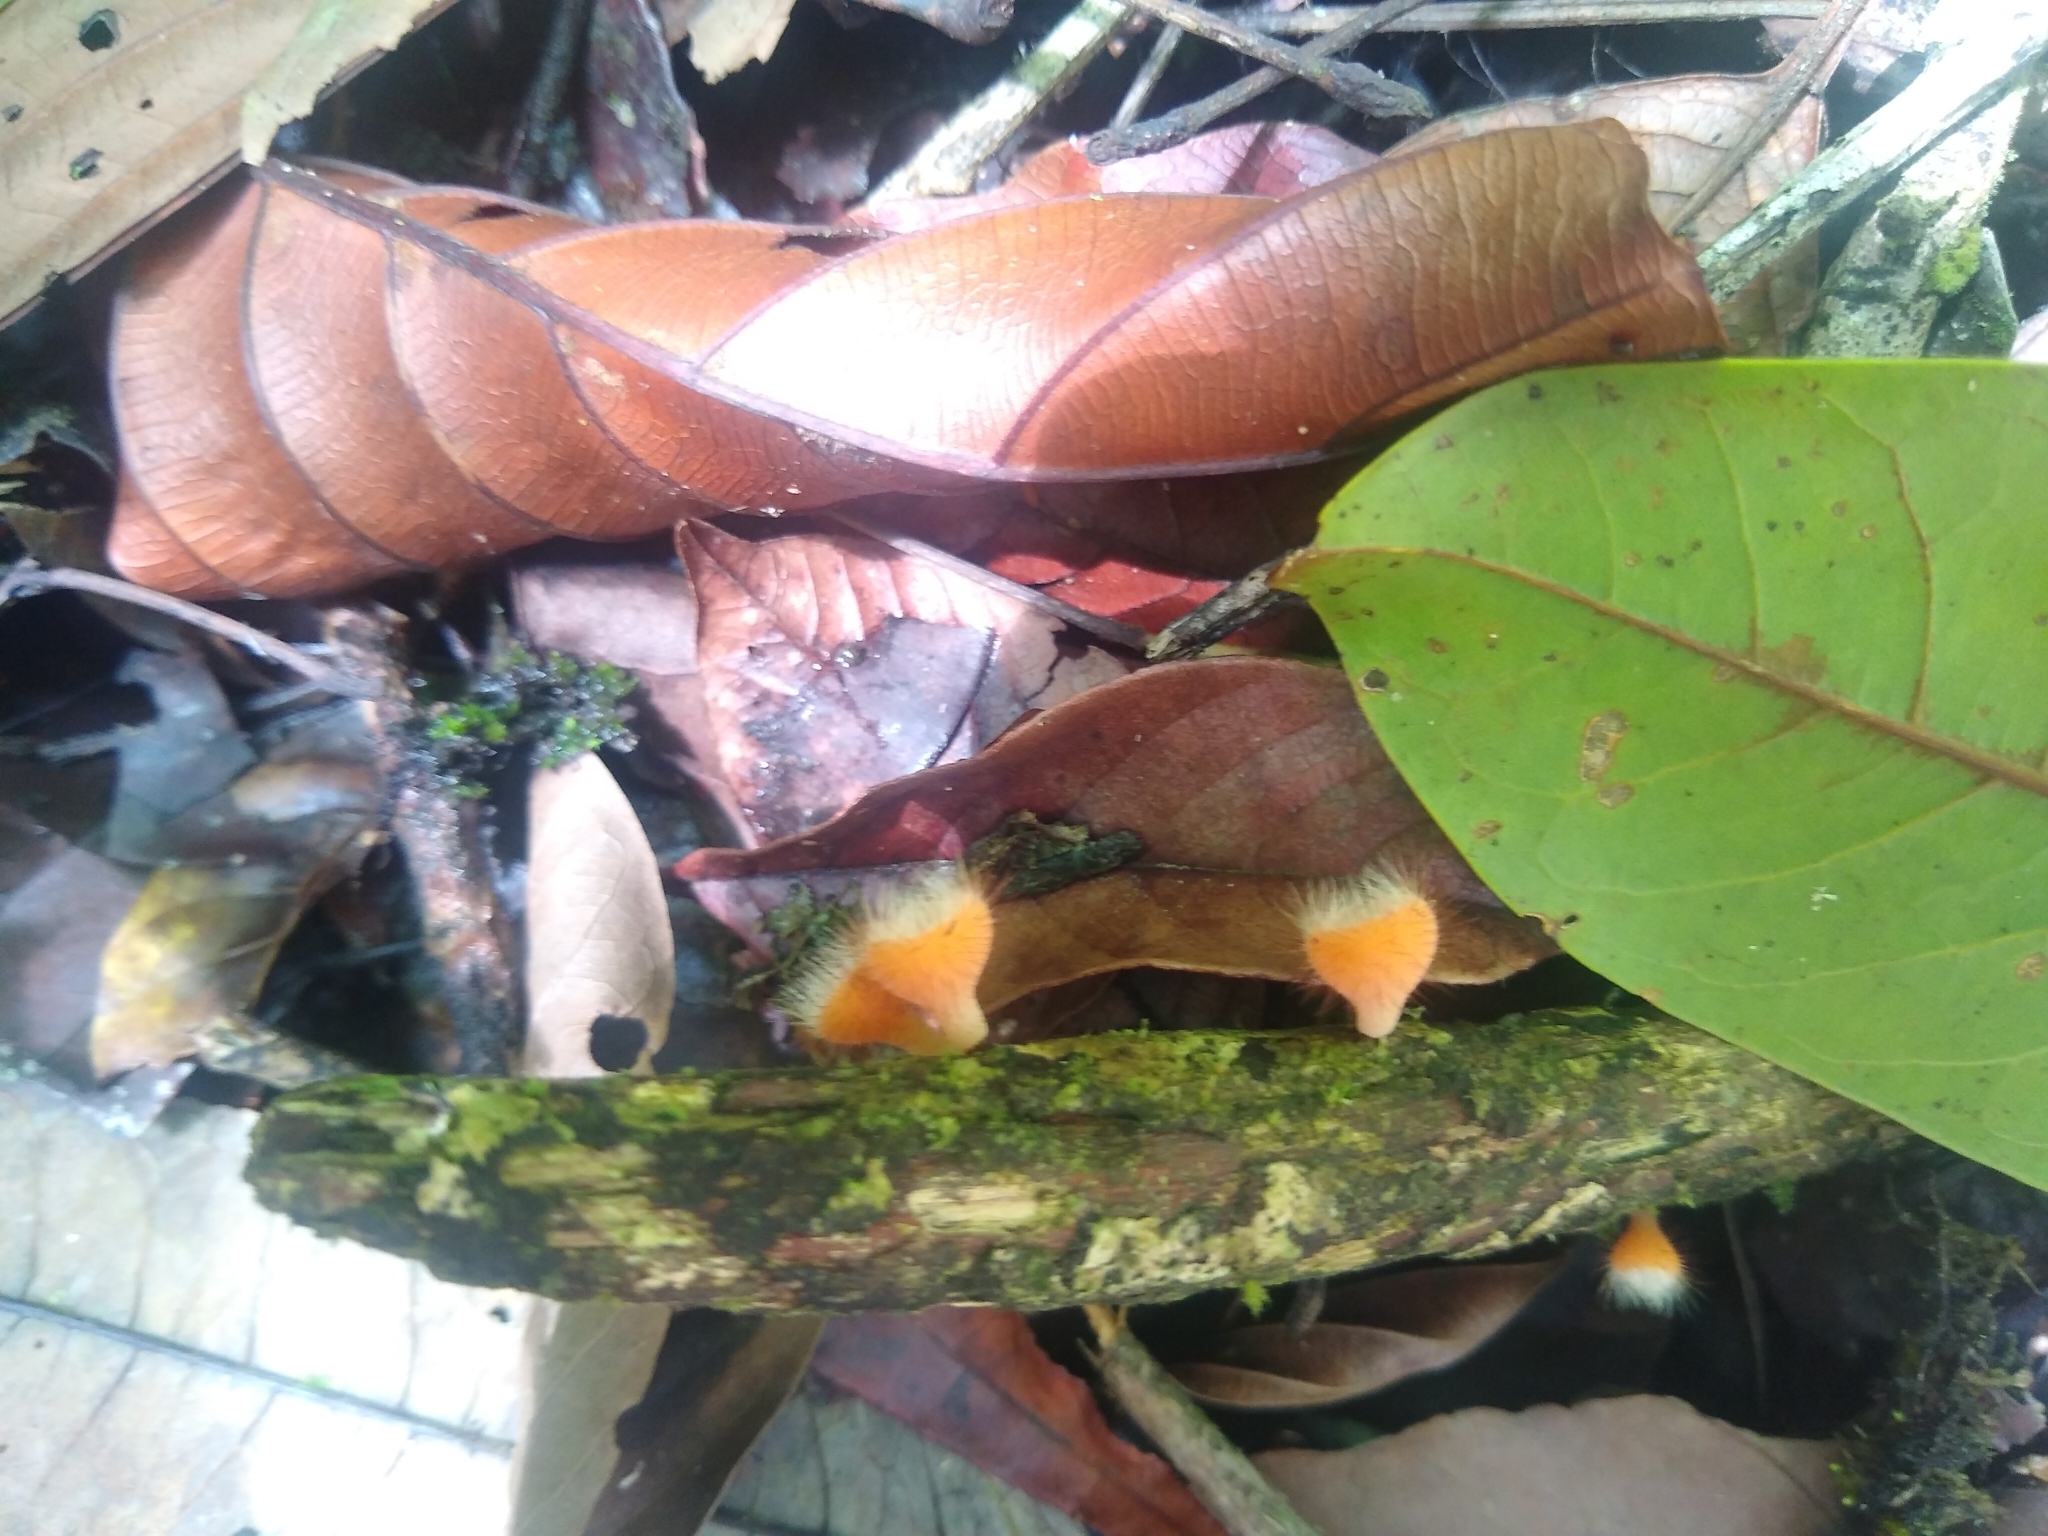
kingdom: Fungi
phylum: Ascomycota
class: Pezizomycetes
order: Pezizales
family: Sarcoscyphaceae
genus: Cookeina
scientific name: Cookeina tricholoma
